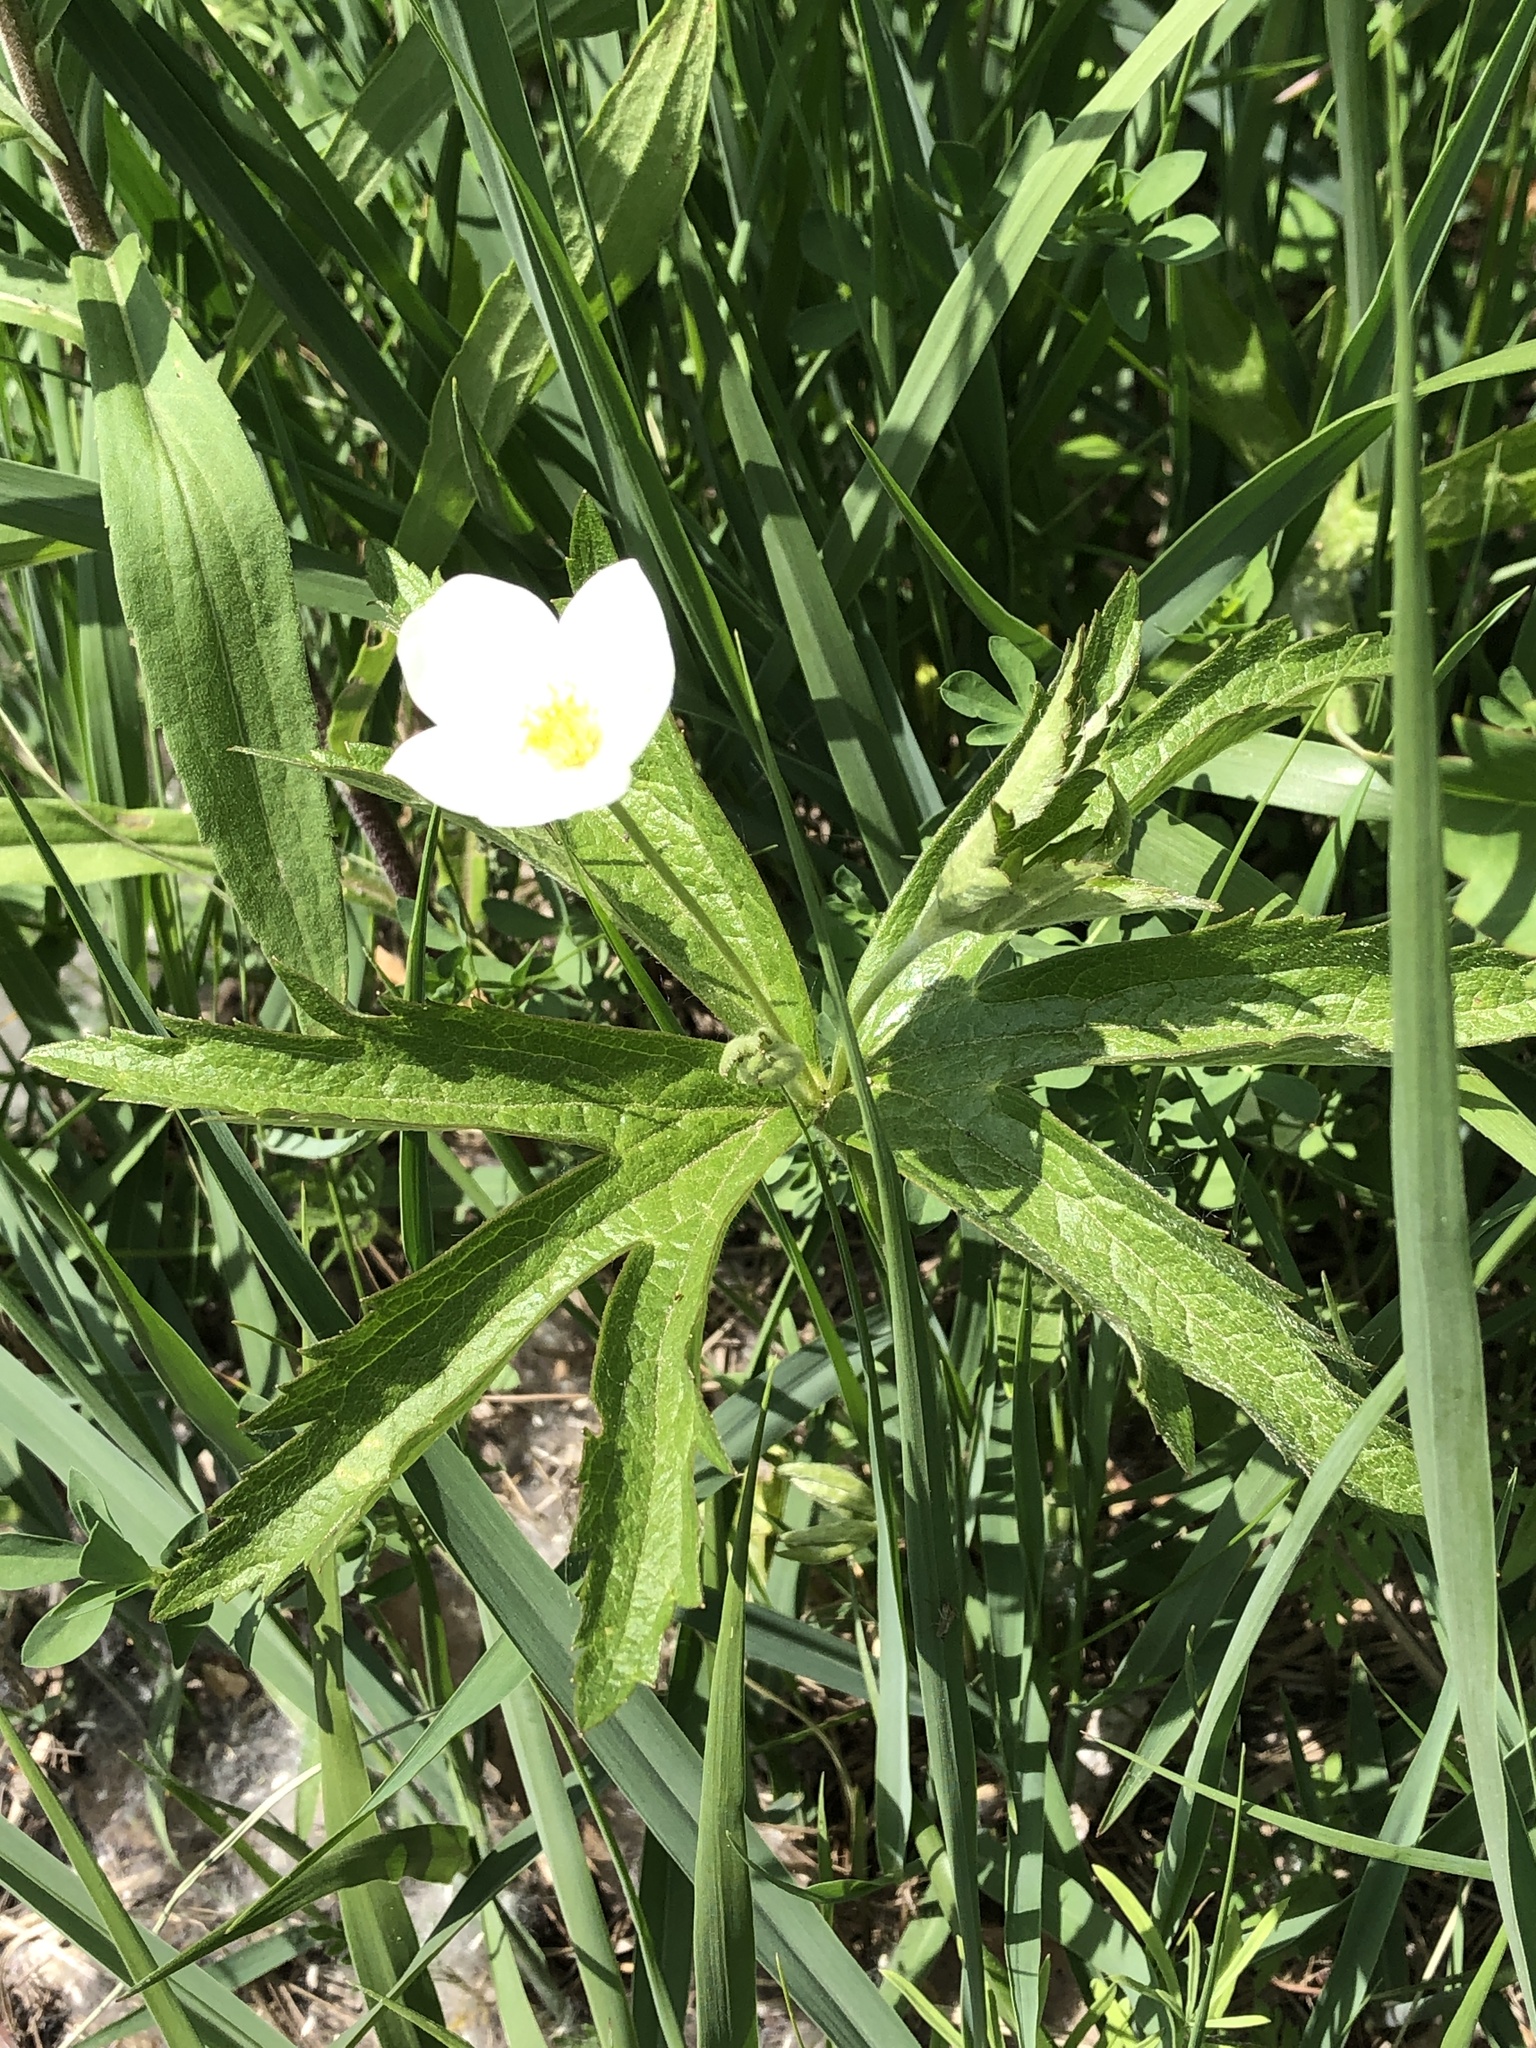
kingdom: Plantae
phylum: Tracheophyta
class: Magnoliopsida
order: Ranunculales
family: Ranunculaceae
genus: Anemonastrum
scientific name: Anemonastrum canadense
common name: Canada anemone
